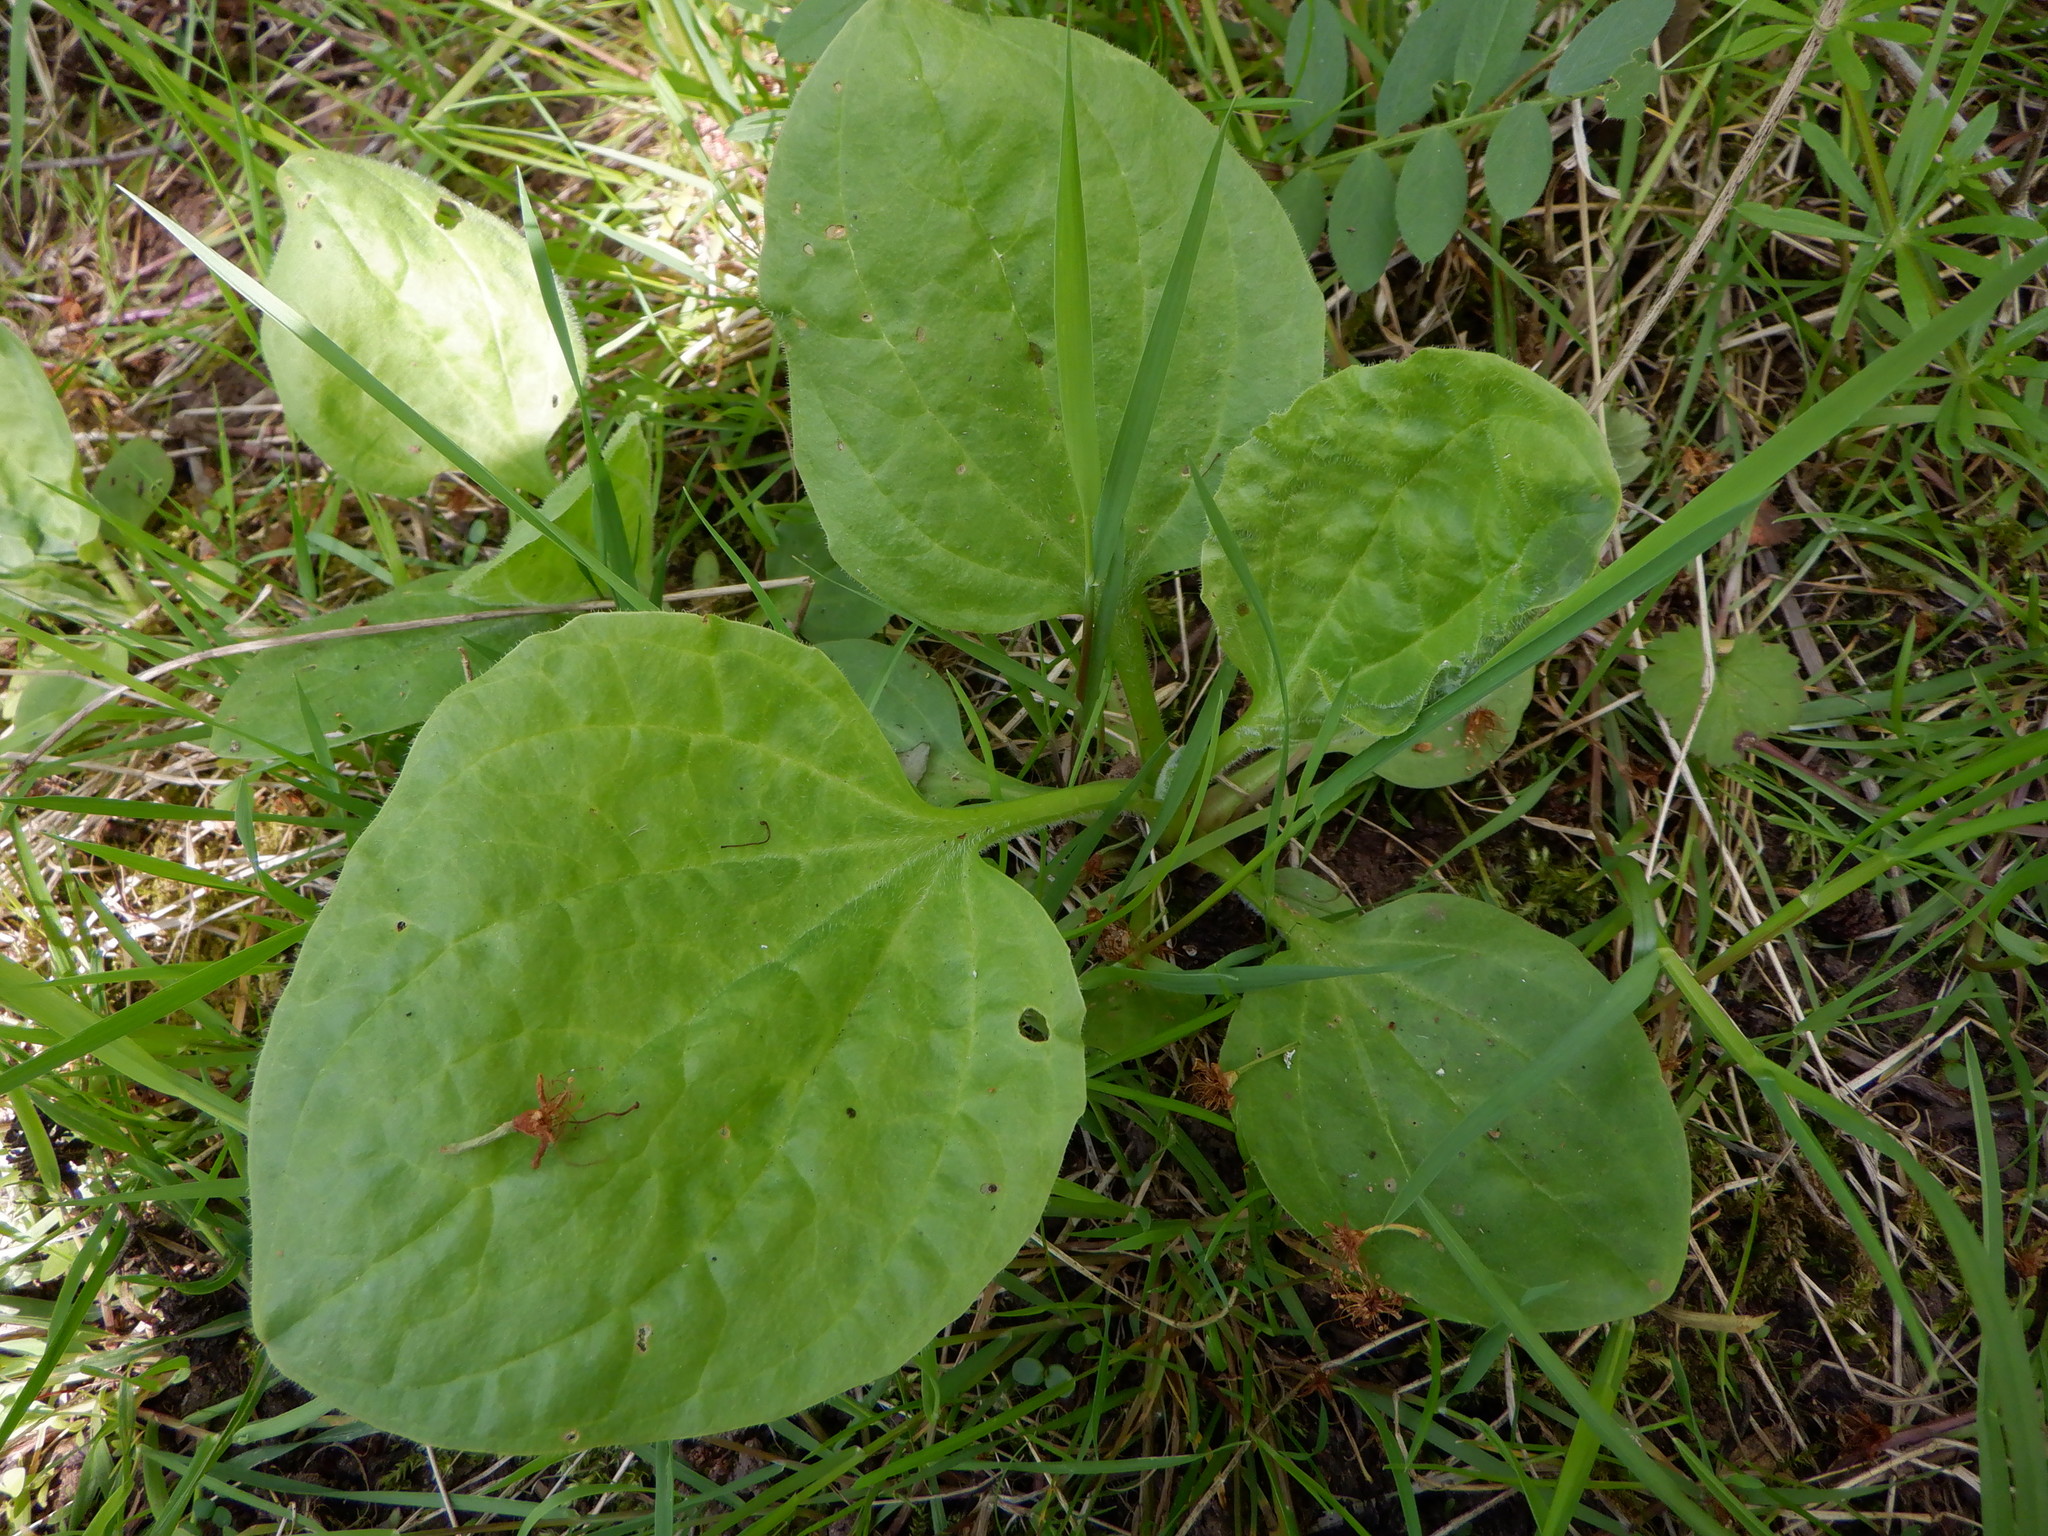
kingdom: Plantae
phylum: Tracheophyta
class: Magnoliopsida
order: Lamiales
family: Plantaginaceae
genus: Plantago
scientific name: Plantago major
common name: Common plantain
